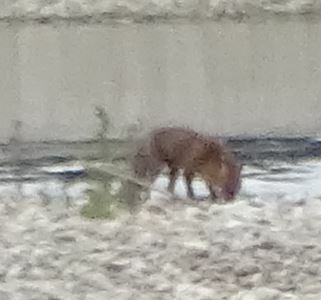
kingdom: Animalia
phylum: Chordata
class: Mammalia
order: Carnivora
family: Canidae
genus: Vulpes
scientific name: Vulpes vulpes
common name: Red fox
